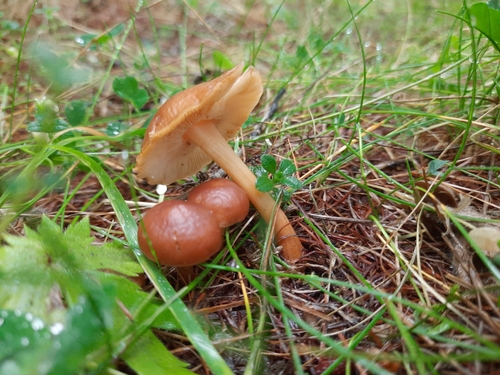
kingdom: Fungi
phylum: Basidiomycota
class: Agaricomycetes
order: Agaricales
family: Omphalotaceae
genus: Gymnopus
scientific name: Gymnopus dryophilus
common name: Penny top
